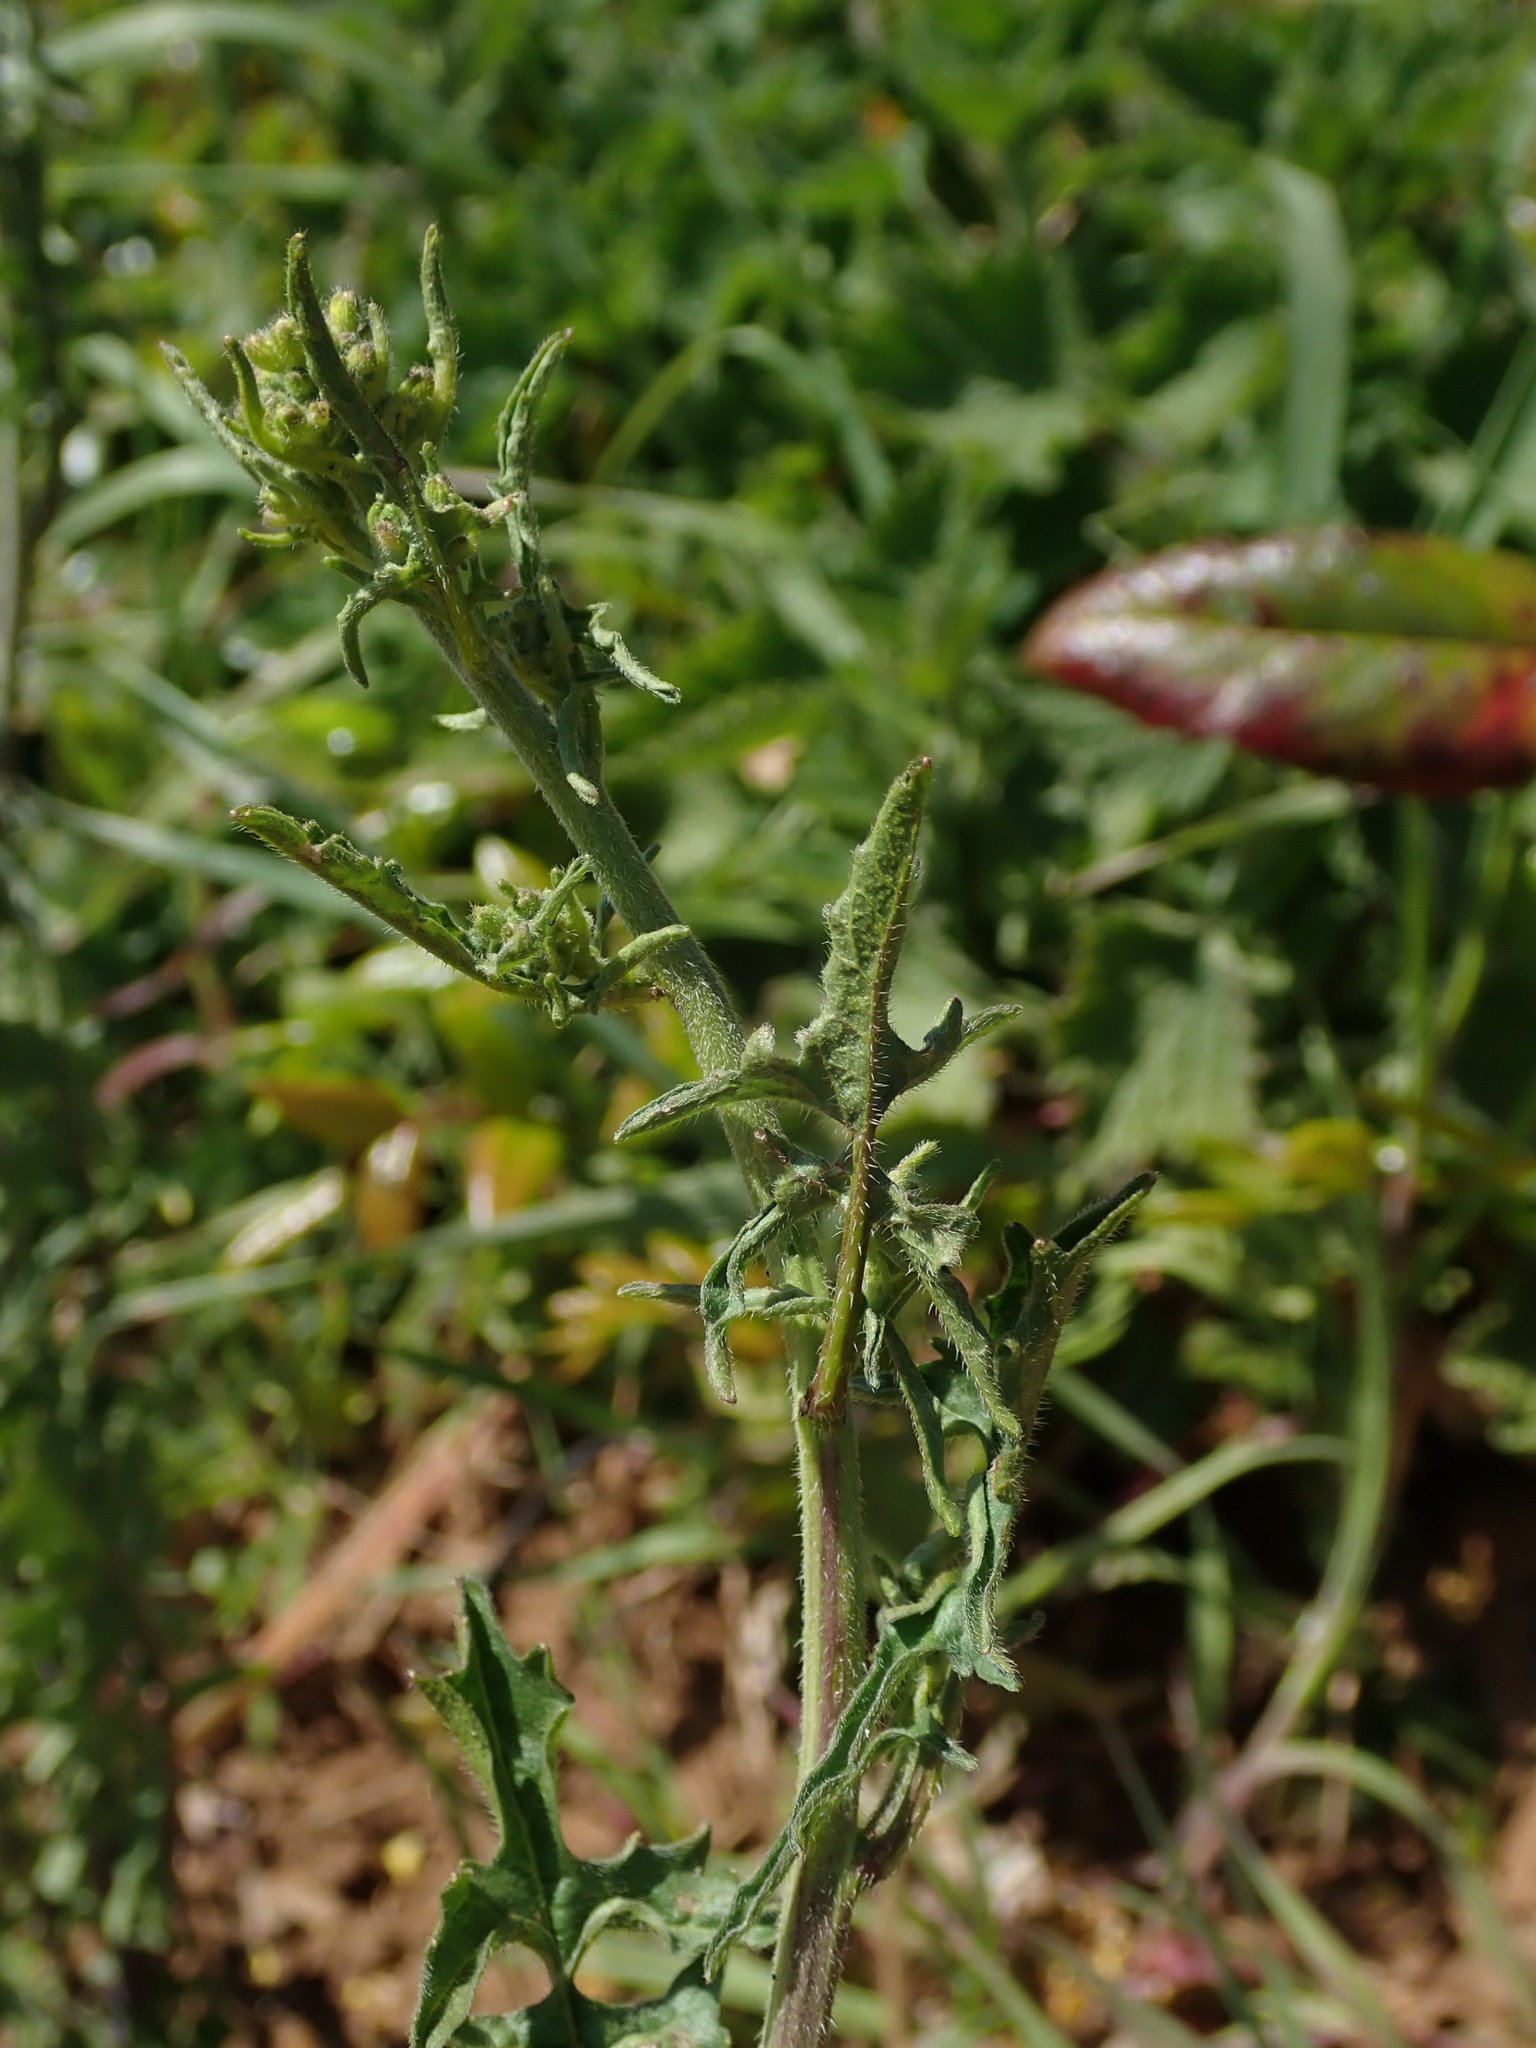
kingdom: Plantae
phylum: Tracheophyta
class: Magnoliopsida
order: Brassicales
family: Brassicaceae
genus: Sisymbrium
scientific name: Sisymbrium officinale
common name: Hedge mustard
